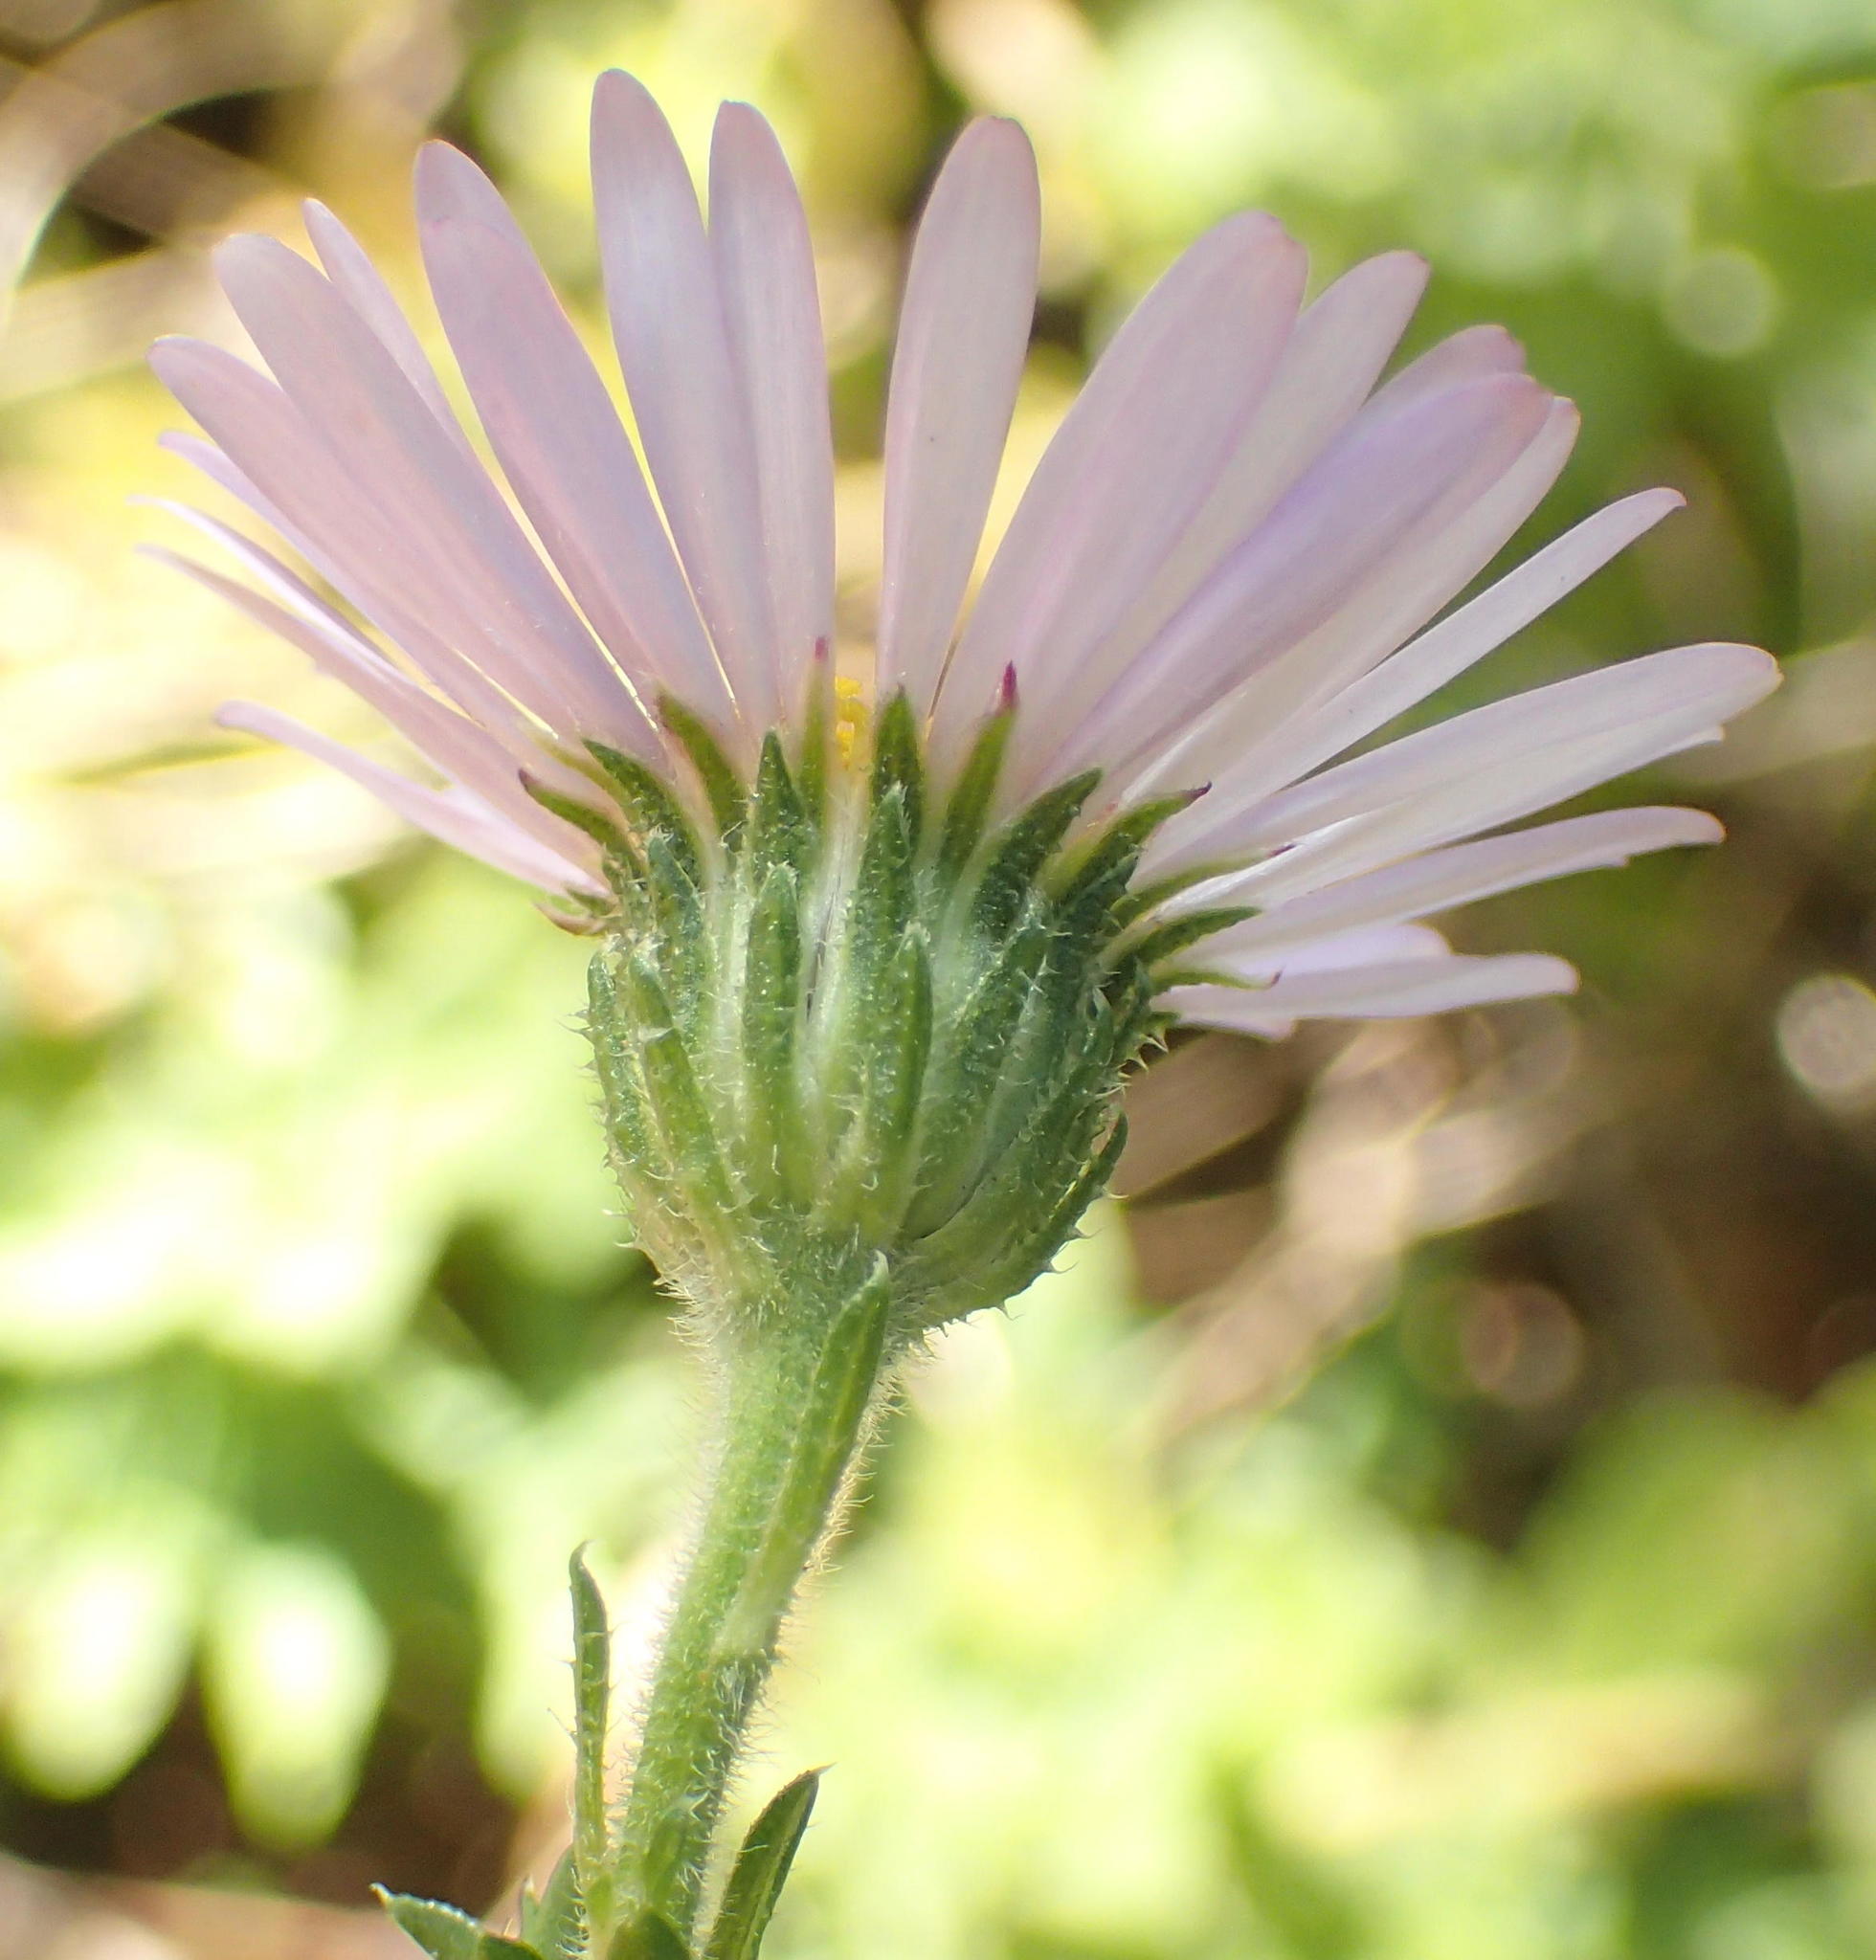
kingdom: Plantae
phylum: Tracheophyta
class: Magnoliopsida
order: Asterales
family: Asteraceae
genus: Felicia
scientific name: Felicia echinata
